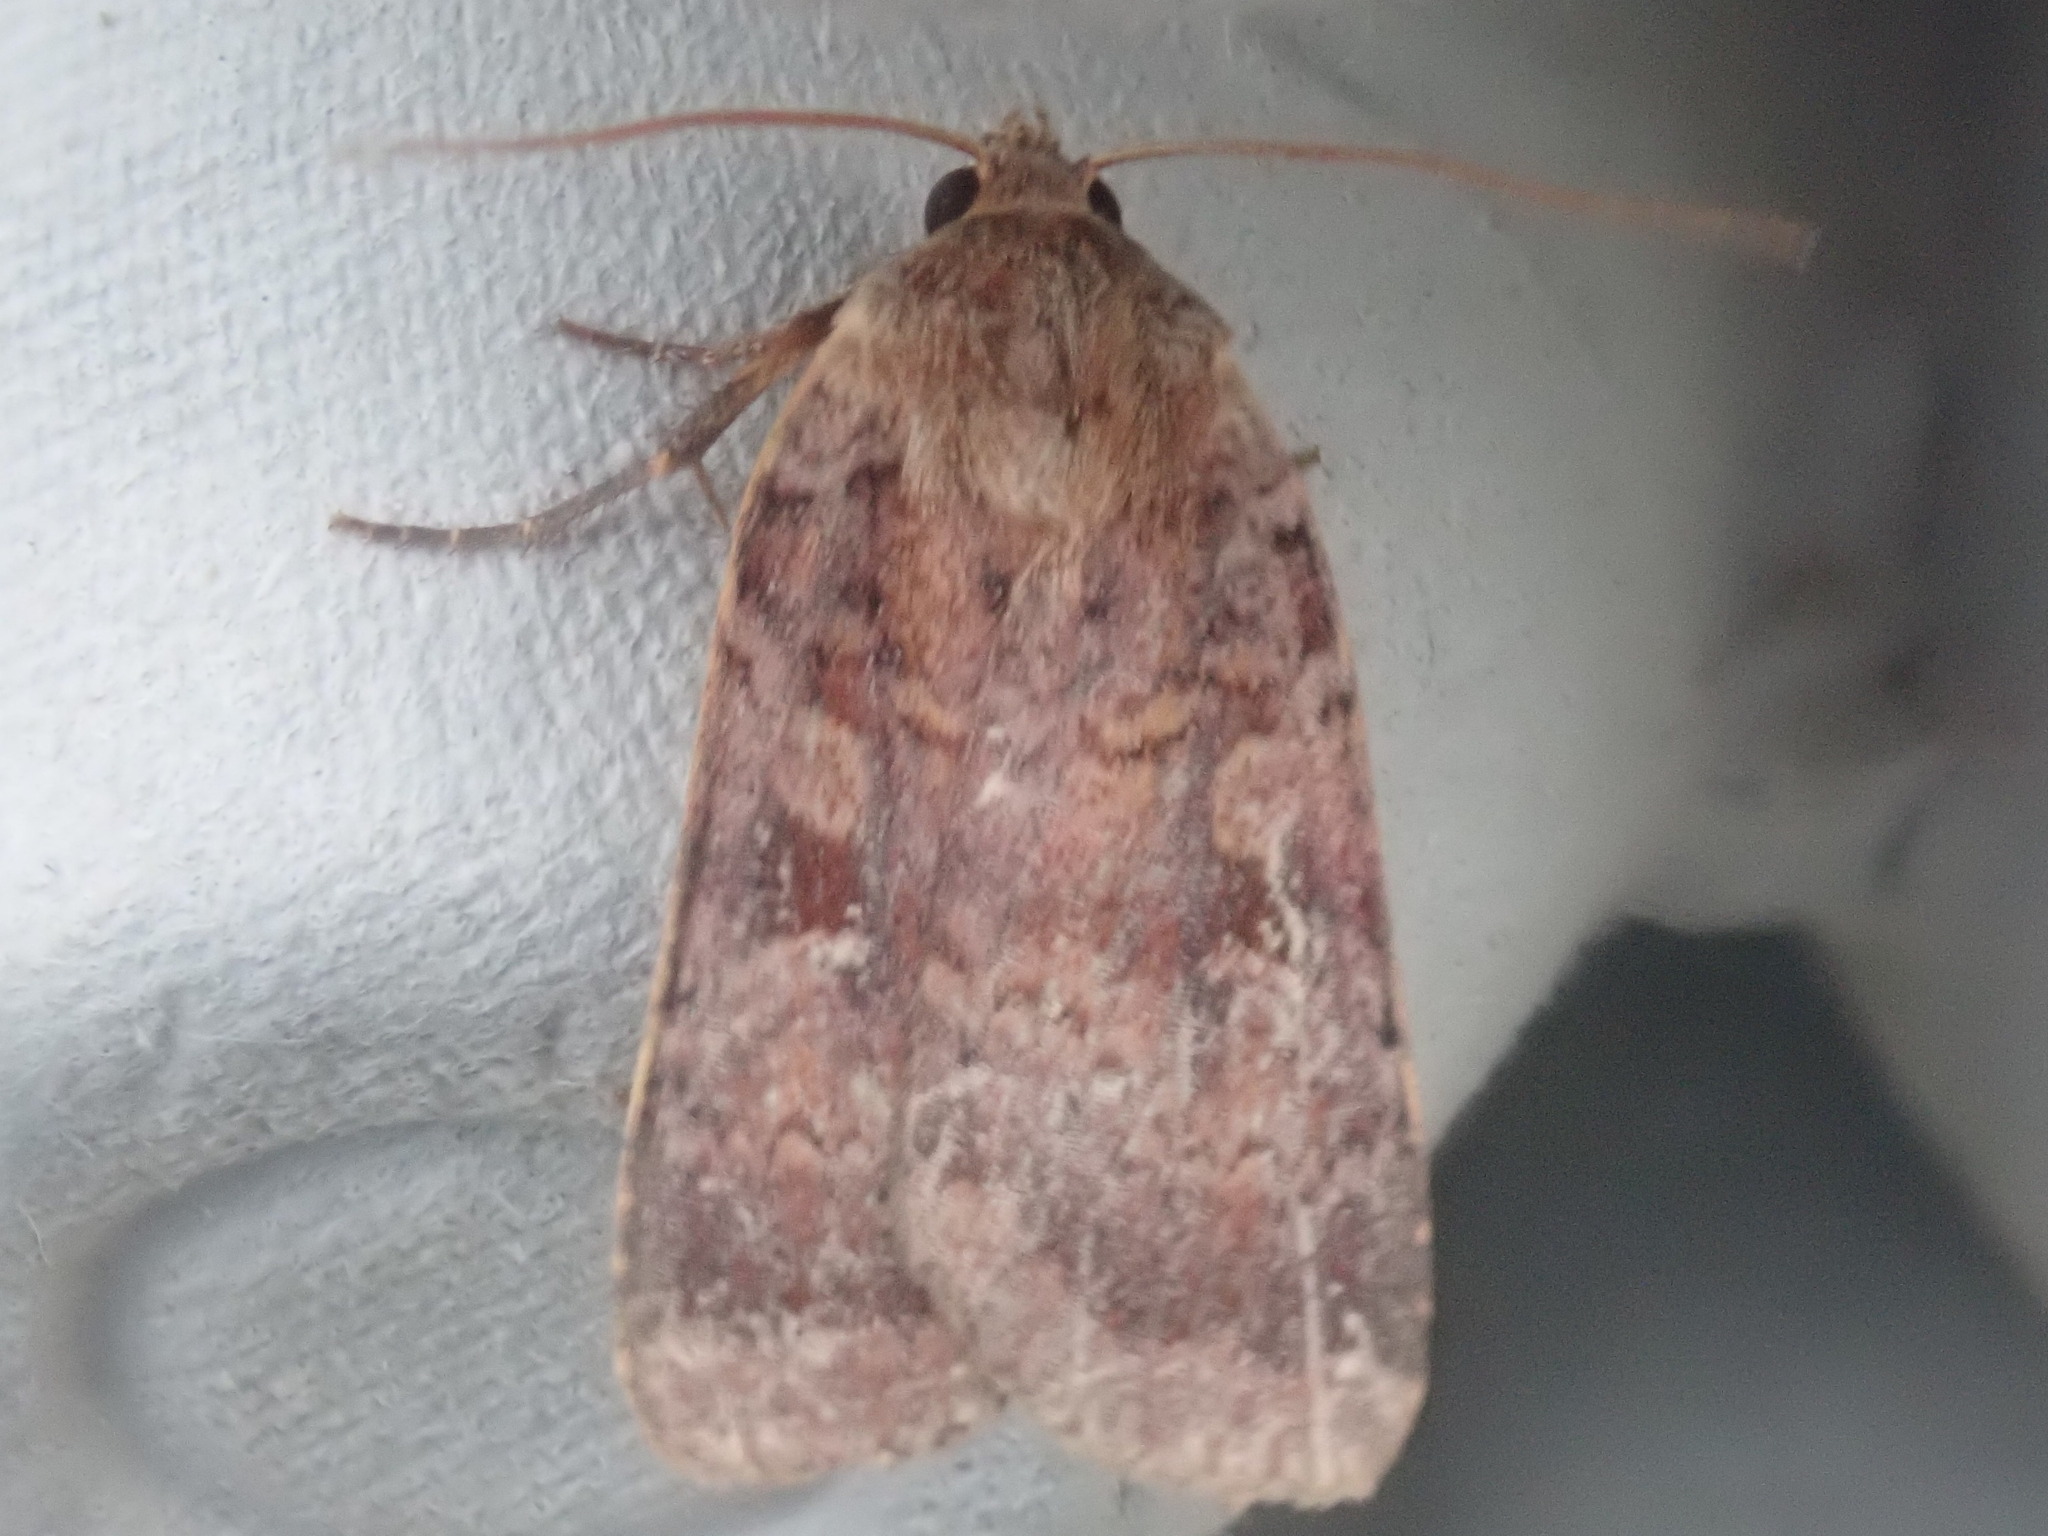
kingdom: Animalia
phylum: Arthropoda
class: Insecta
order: Lepidoptera
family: Noctuidae
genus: Lycophotia
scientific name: Lycophotia phyllophora
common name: Lycophotia moth
